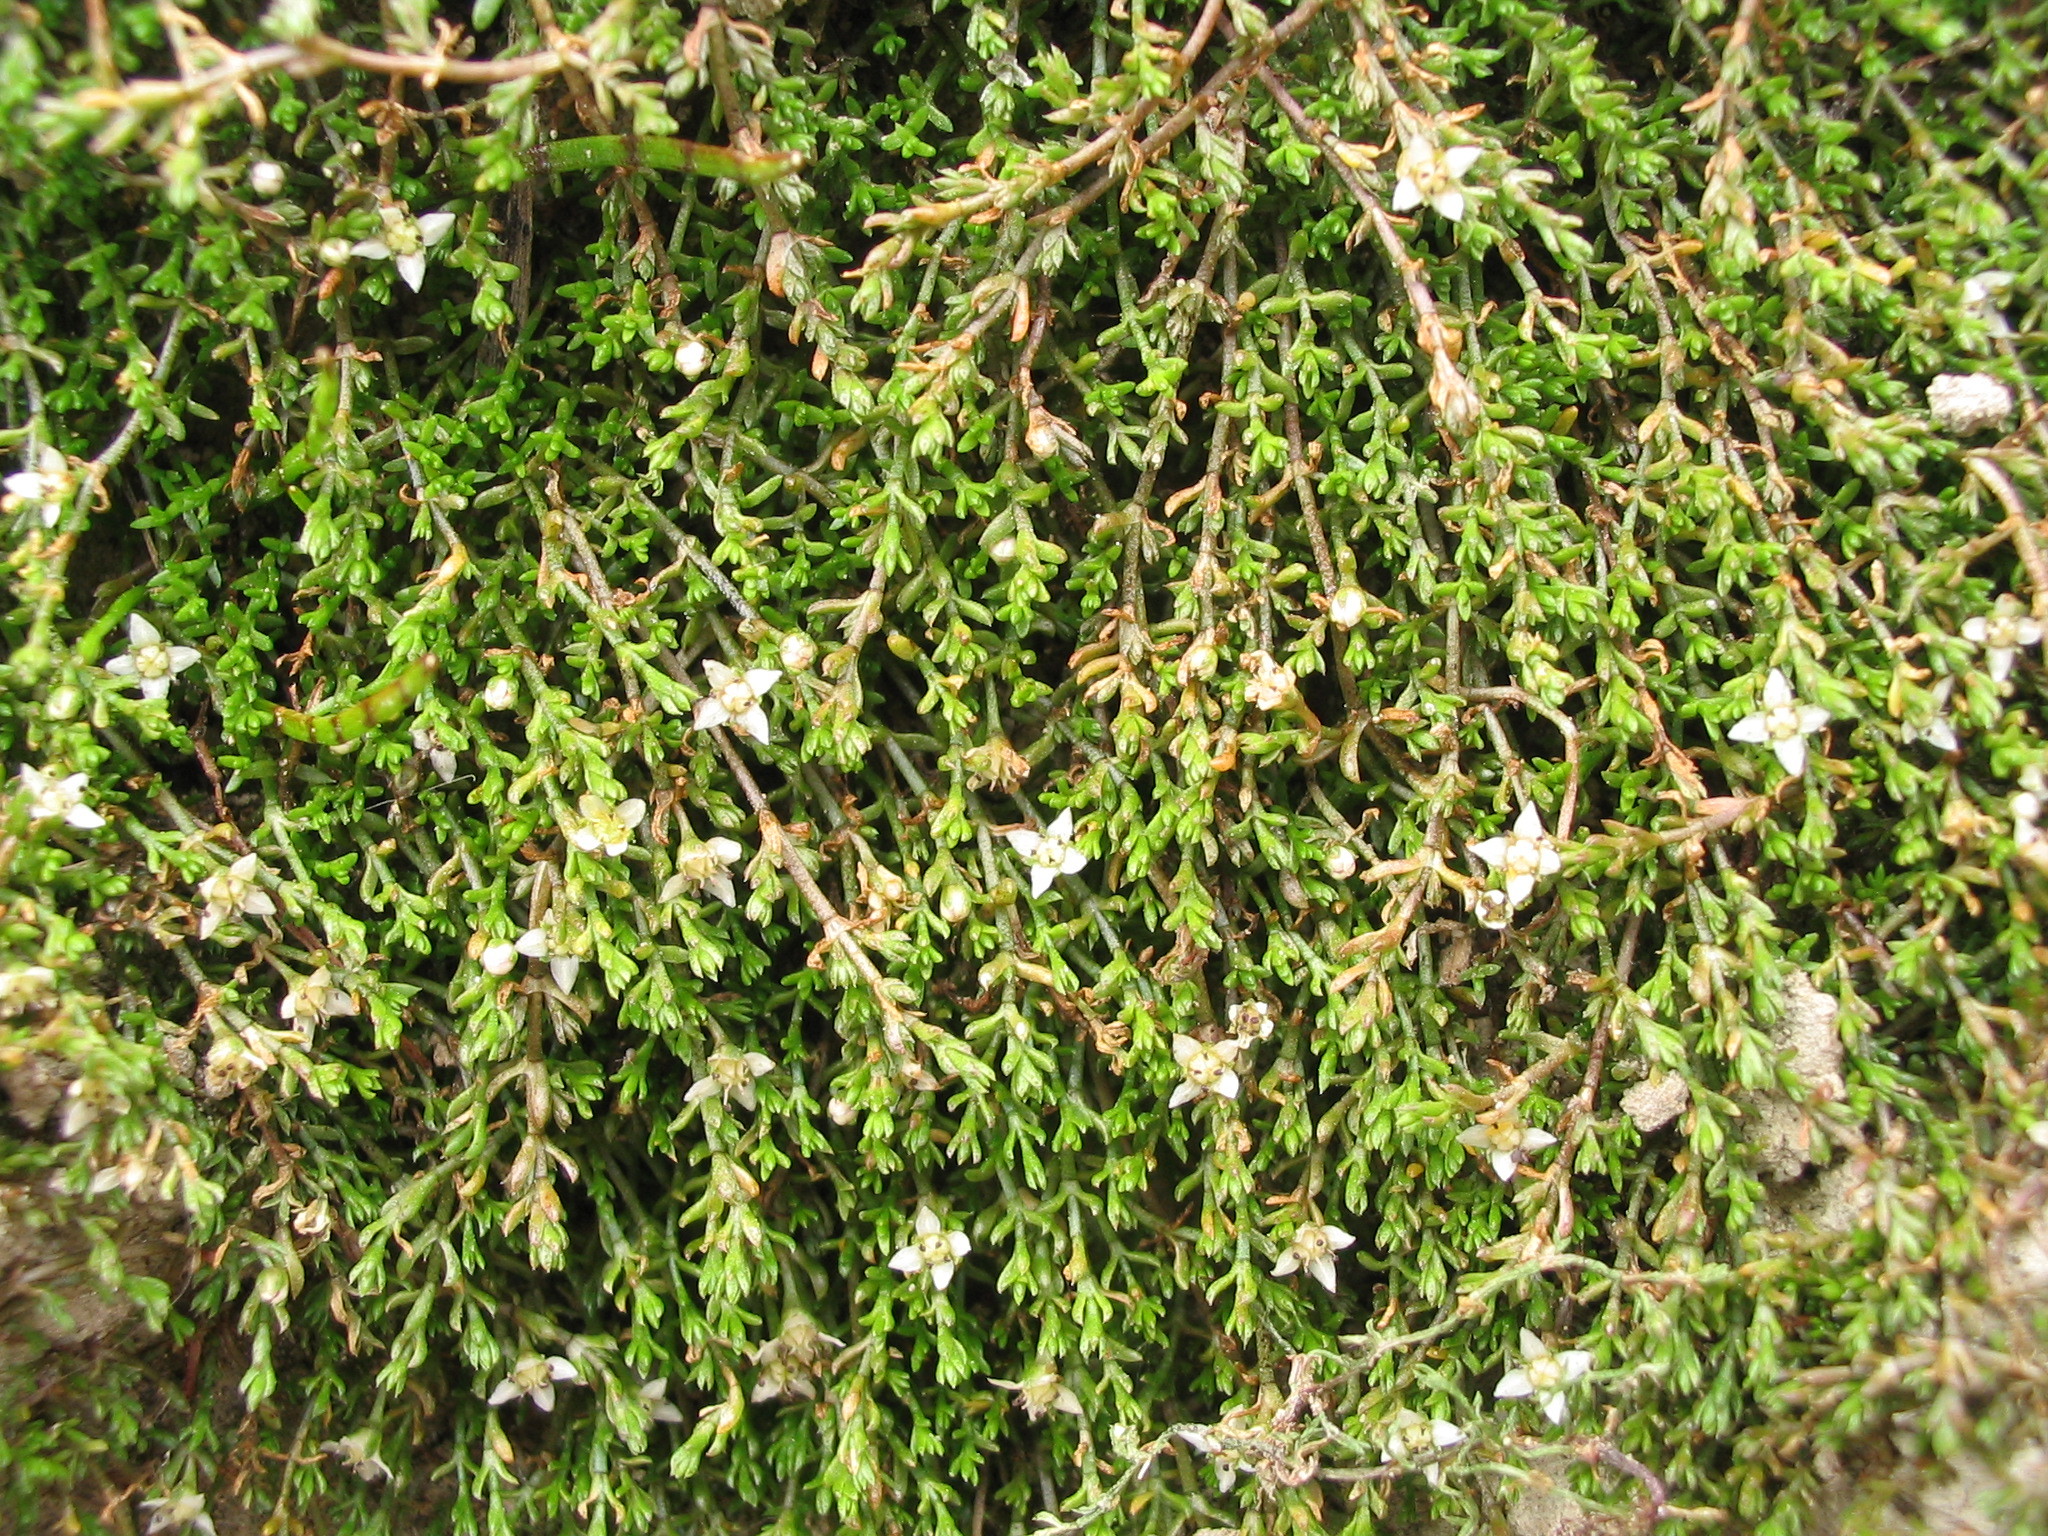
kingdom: Plantae
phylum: Tracheophyta
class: Magnoliopsida
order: Saxifragales
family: Crassulaceae
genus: Crassula
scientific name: Crassula sinclairii
